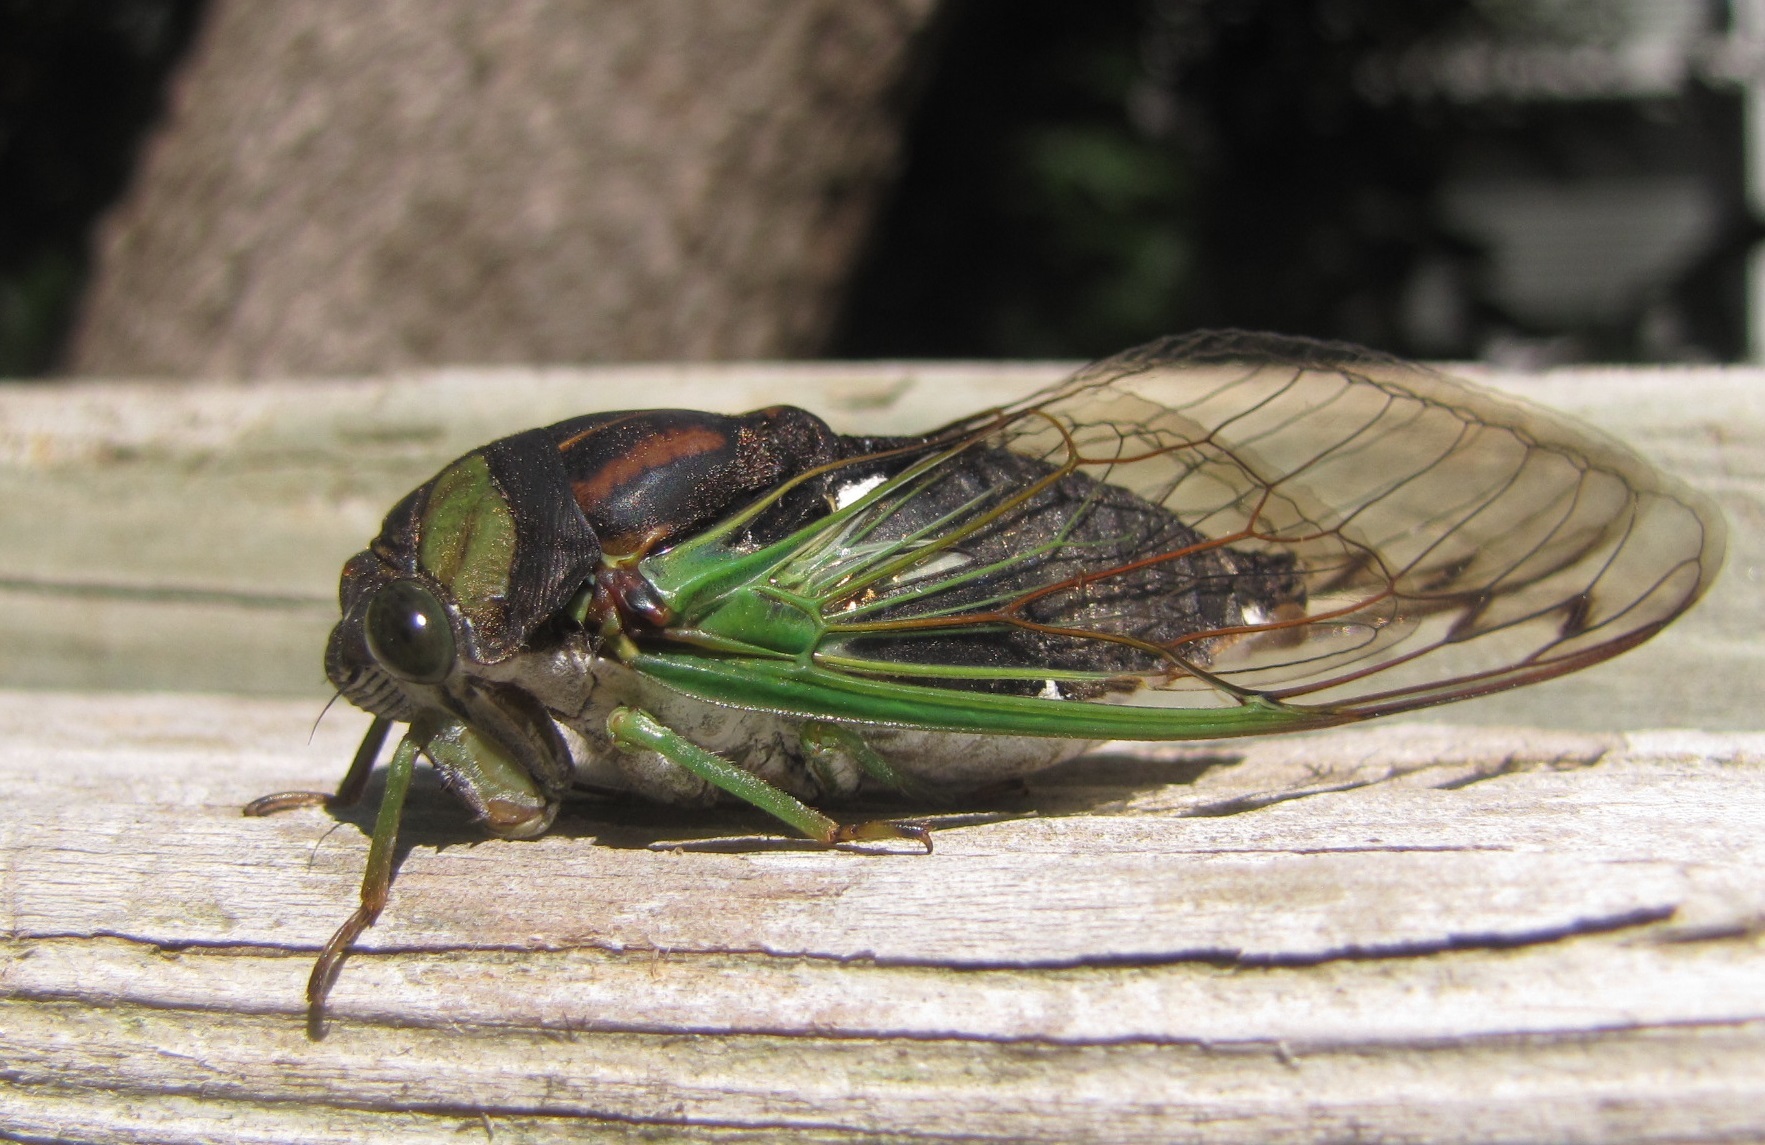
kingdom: Animalia
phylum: Arthropoda
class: Insecta
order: Hemiptera
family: Cicadidae
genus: Neotibicen
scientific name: Neotibicen tibicen
